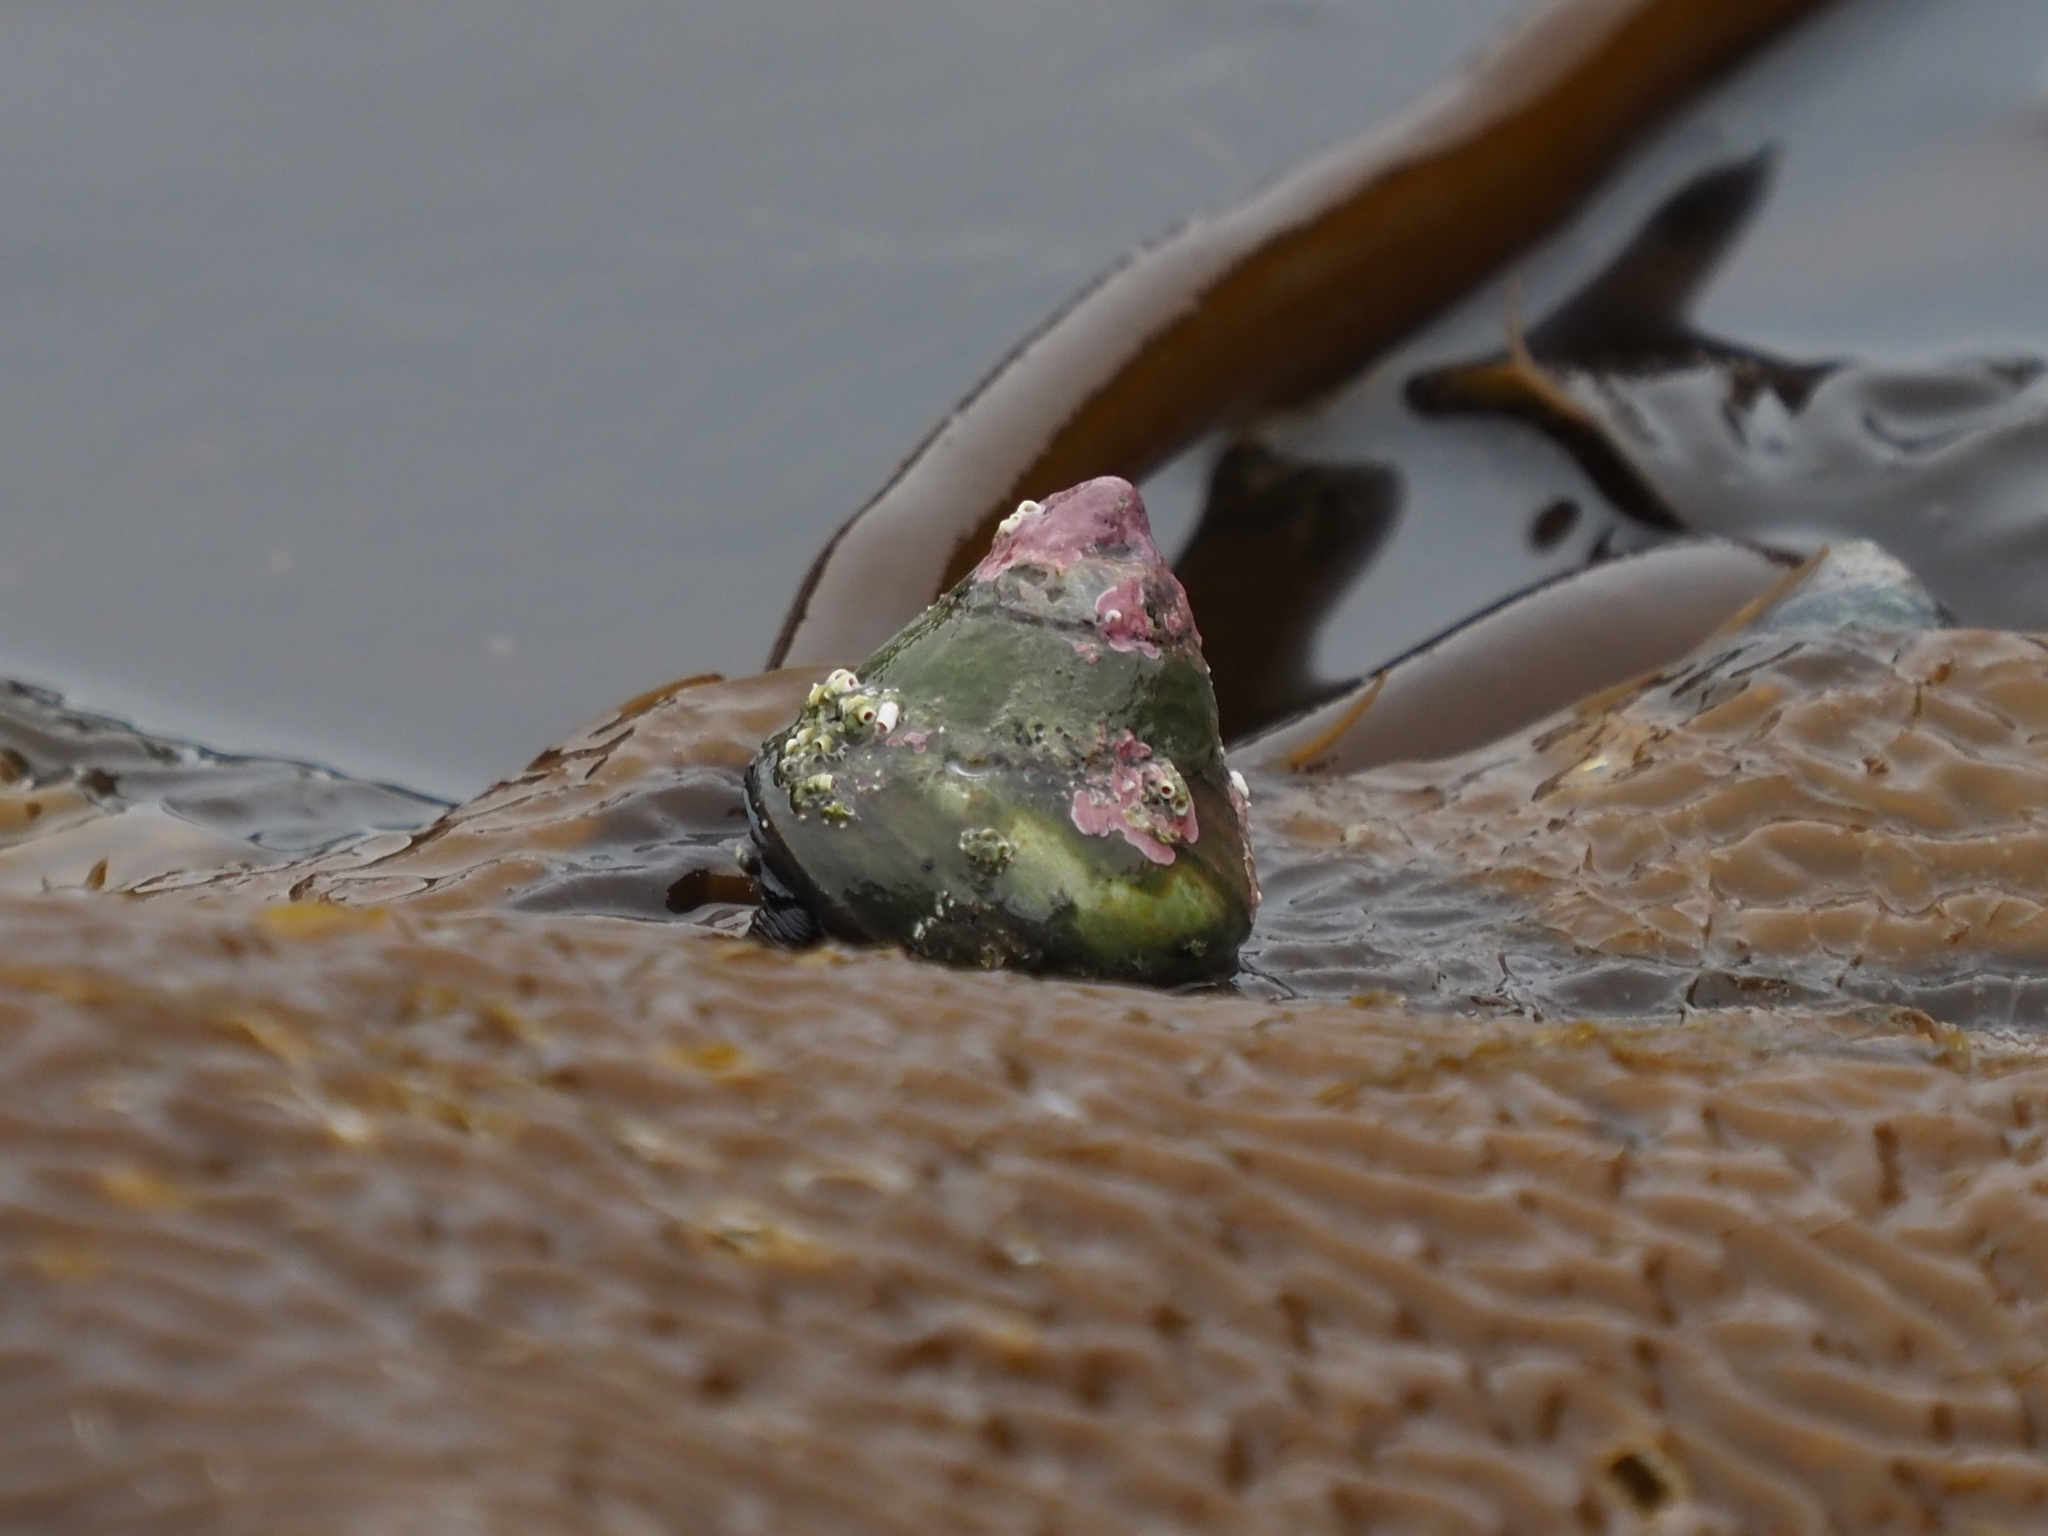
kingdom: Animalia
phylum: Mollusca
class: Gastropoda
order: Trochida
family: Tegulidae
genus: Tegula
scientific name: Tegula pulligo
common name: Brown turban
